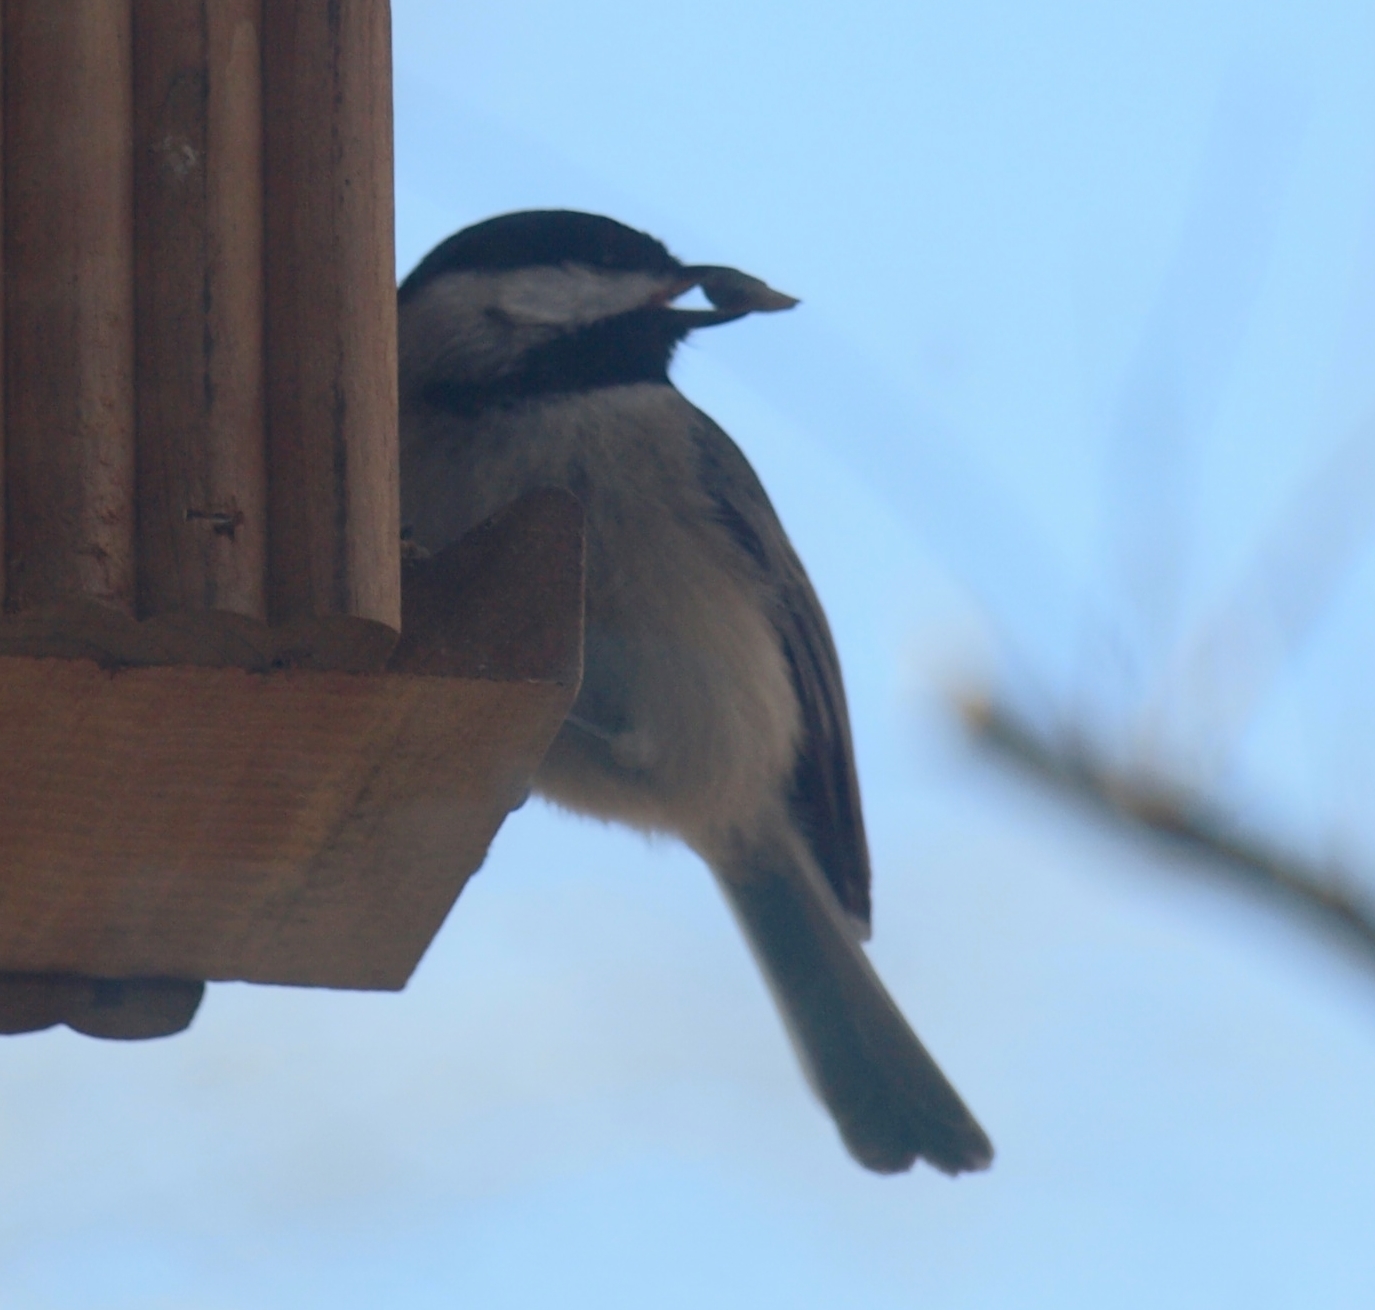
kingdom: Animalia
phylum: Chordata
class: Aves
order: Passeriformes
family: Paridae
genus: Poecile
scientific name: Poecile carolinensis
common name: Carolina chickadee
